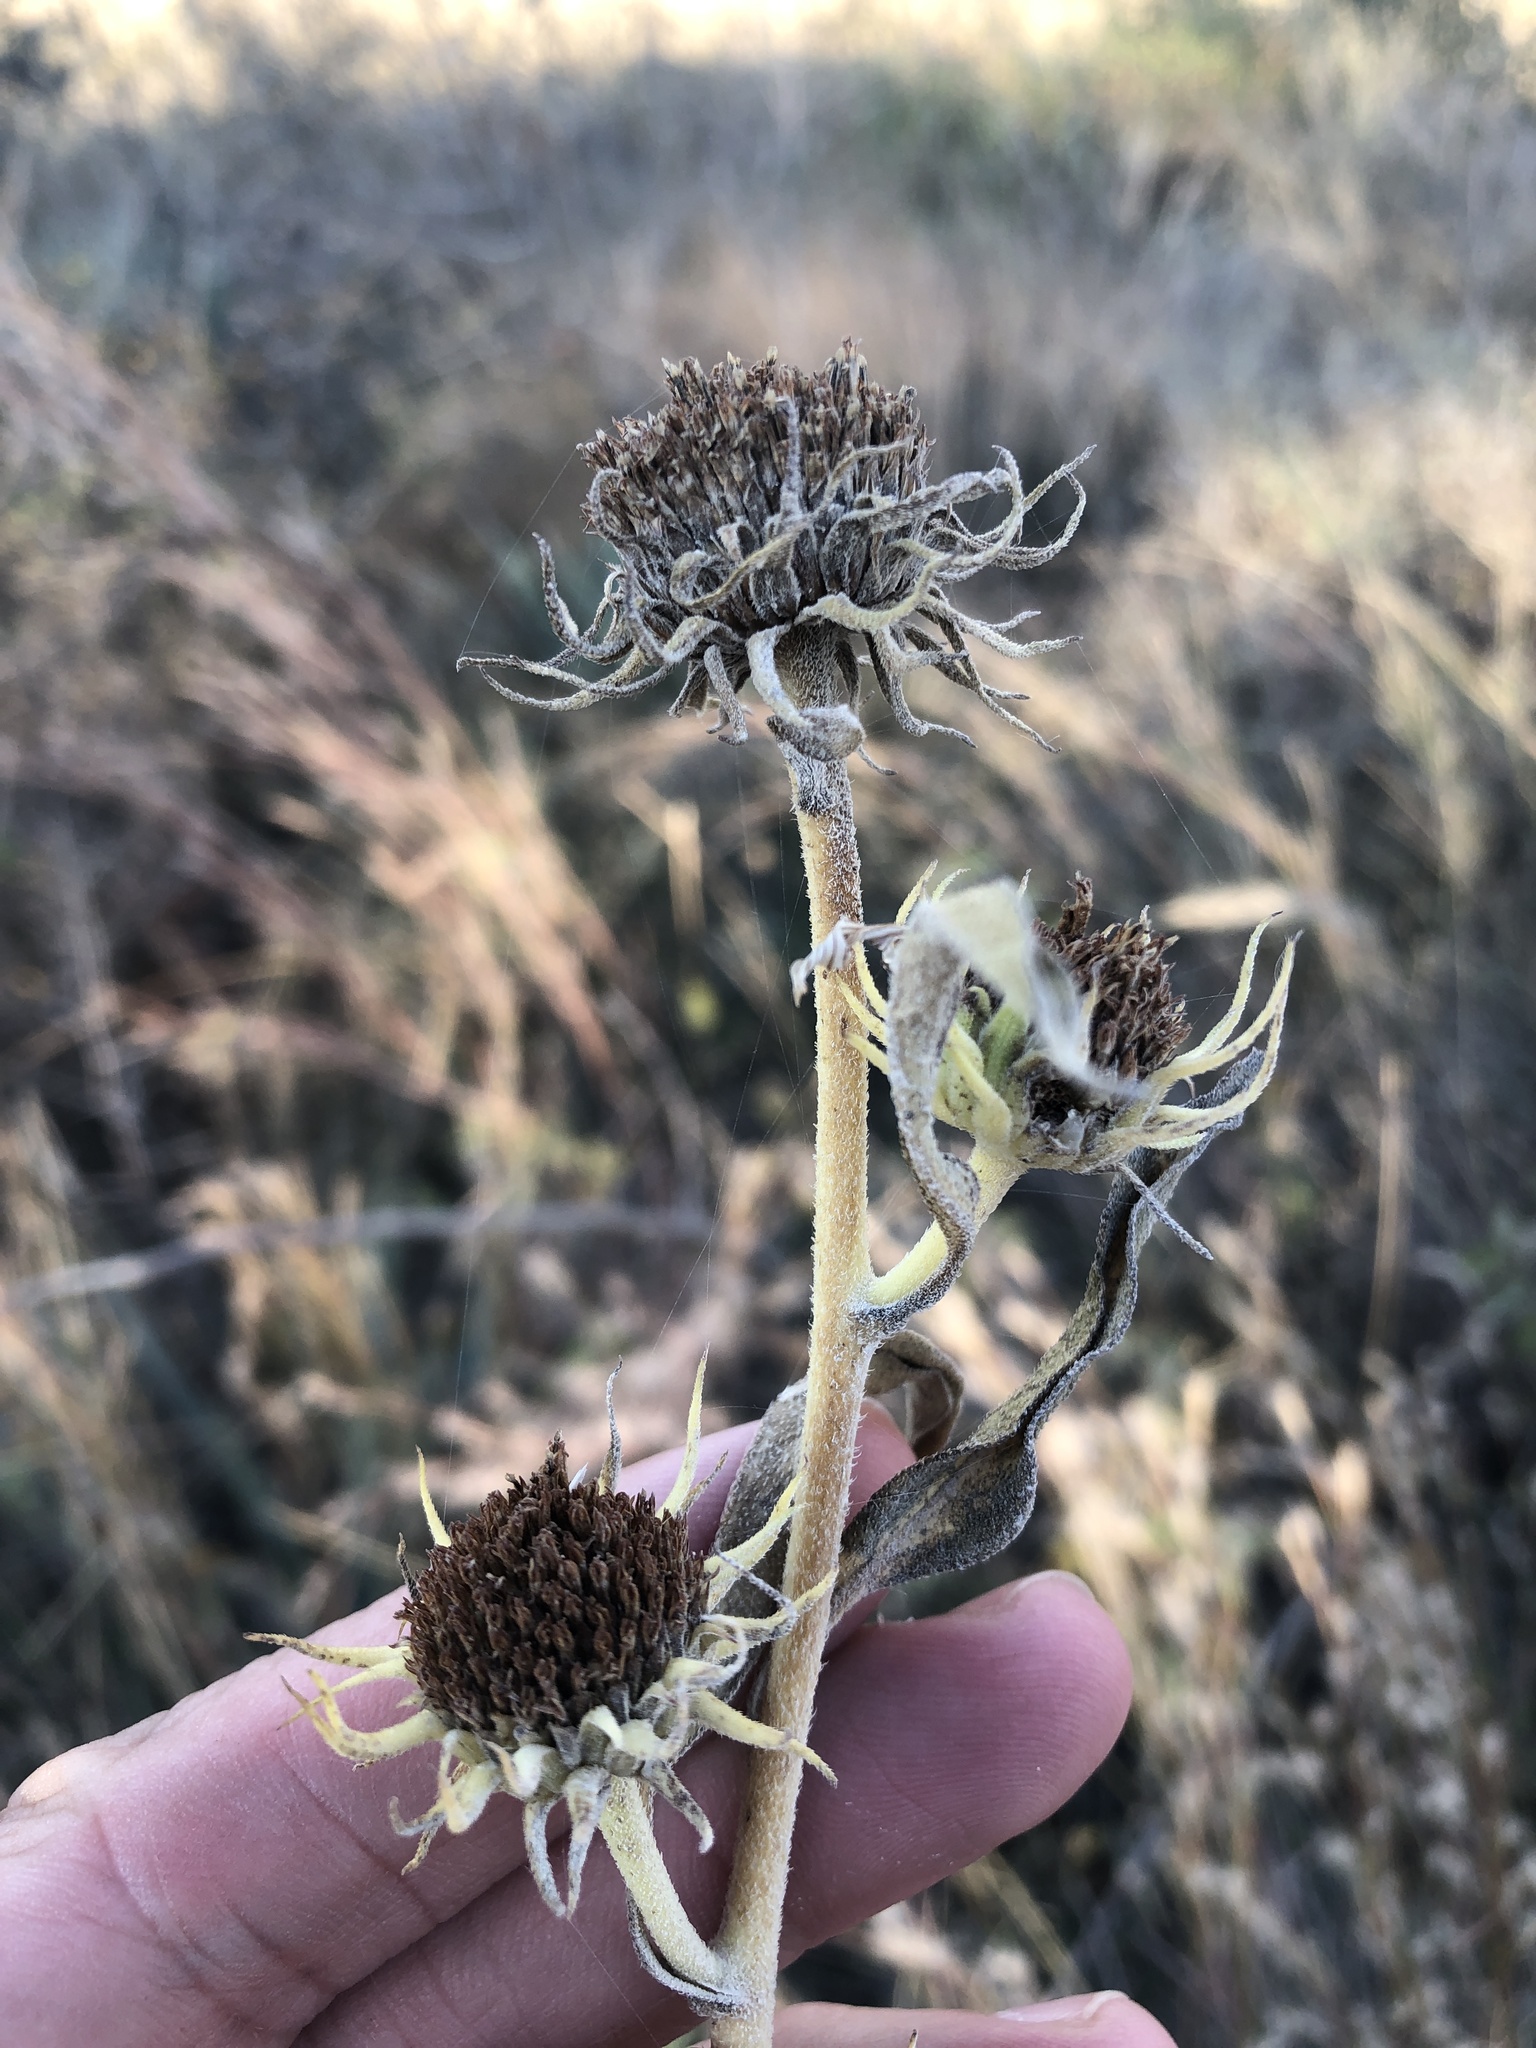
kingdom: Plantae
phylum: Tracheophyta
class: Magnoliopsida
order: Asterales
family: Asteraceae
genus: Helianthus
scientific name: Helianthus maximiliani
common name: Maximilian's sunflower
